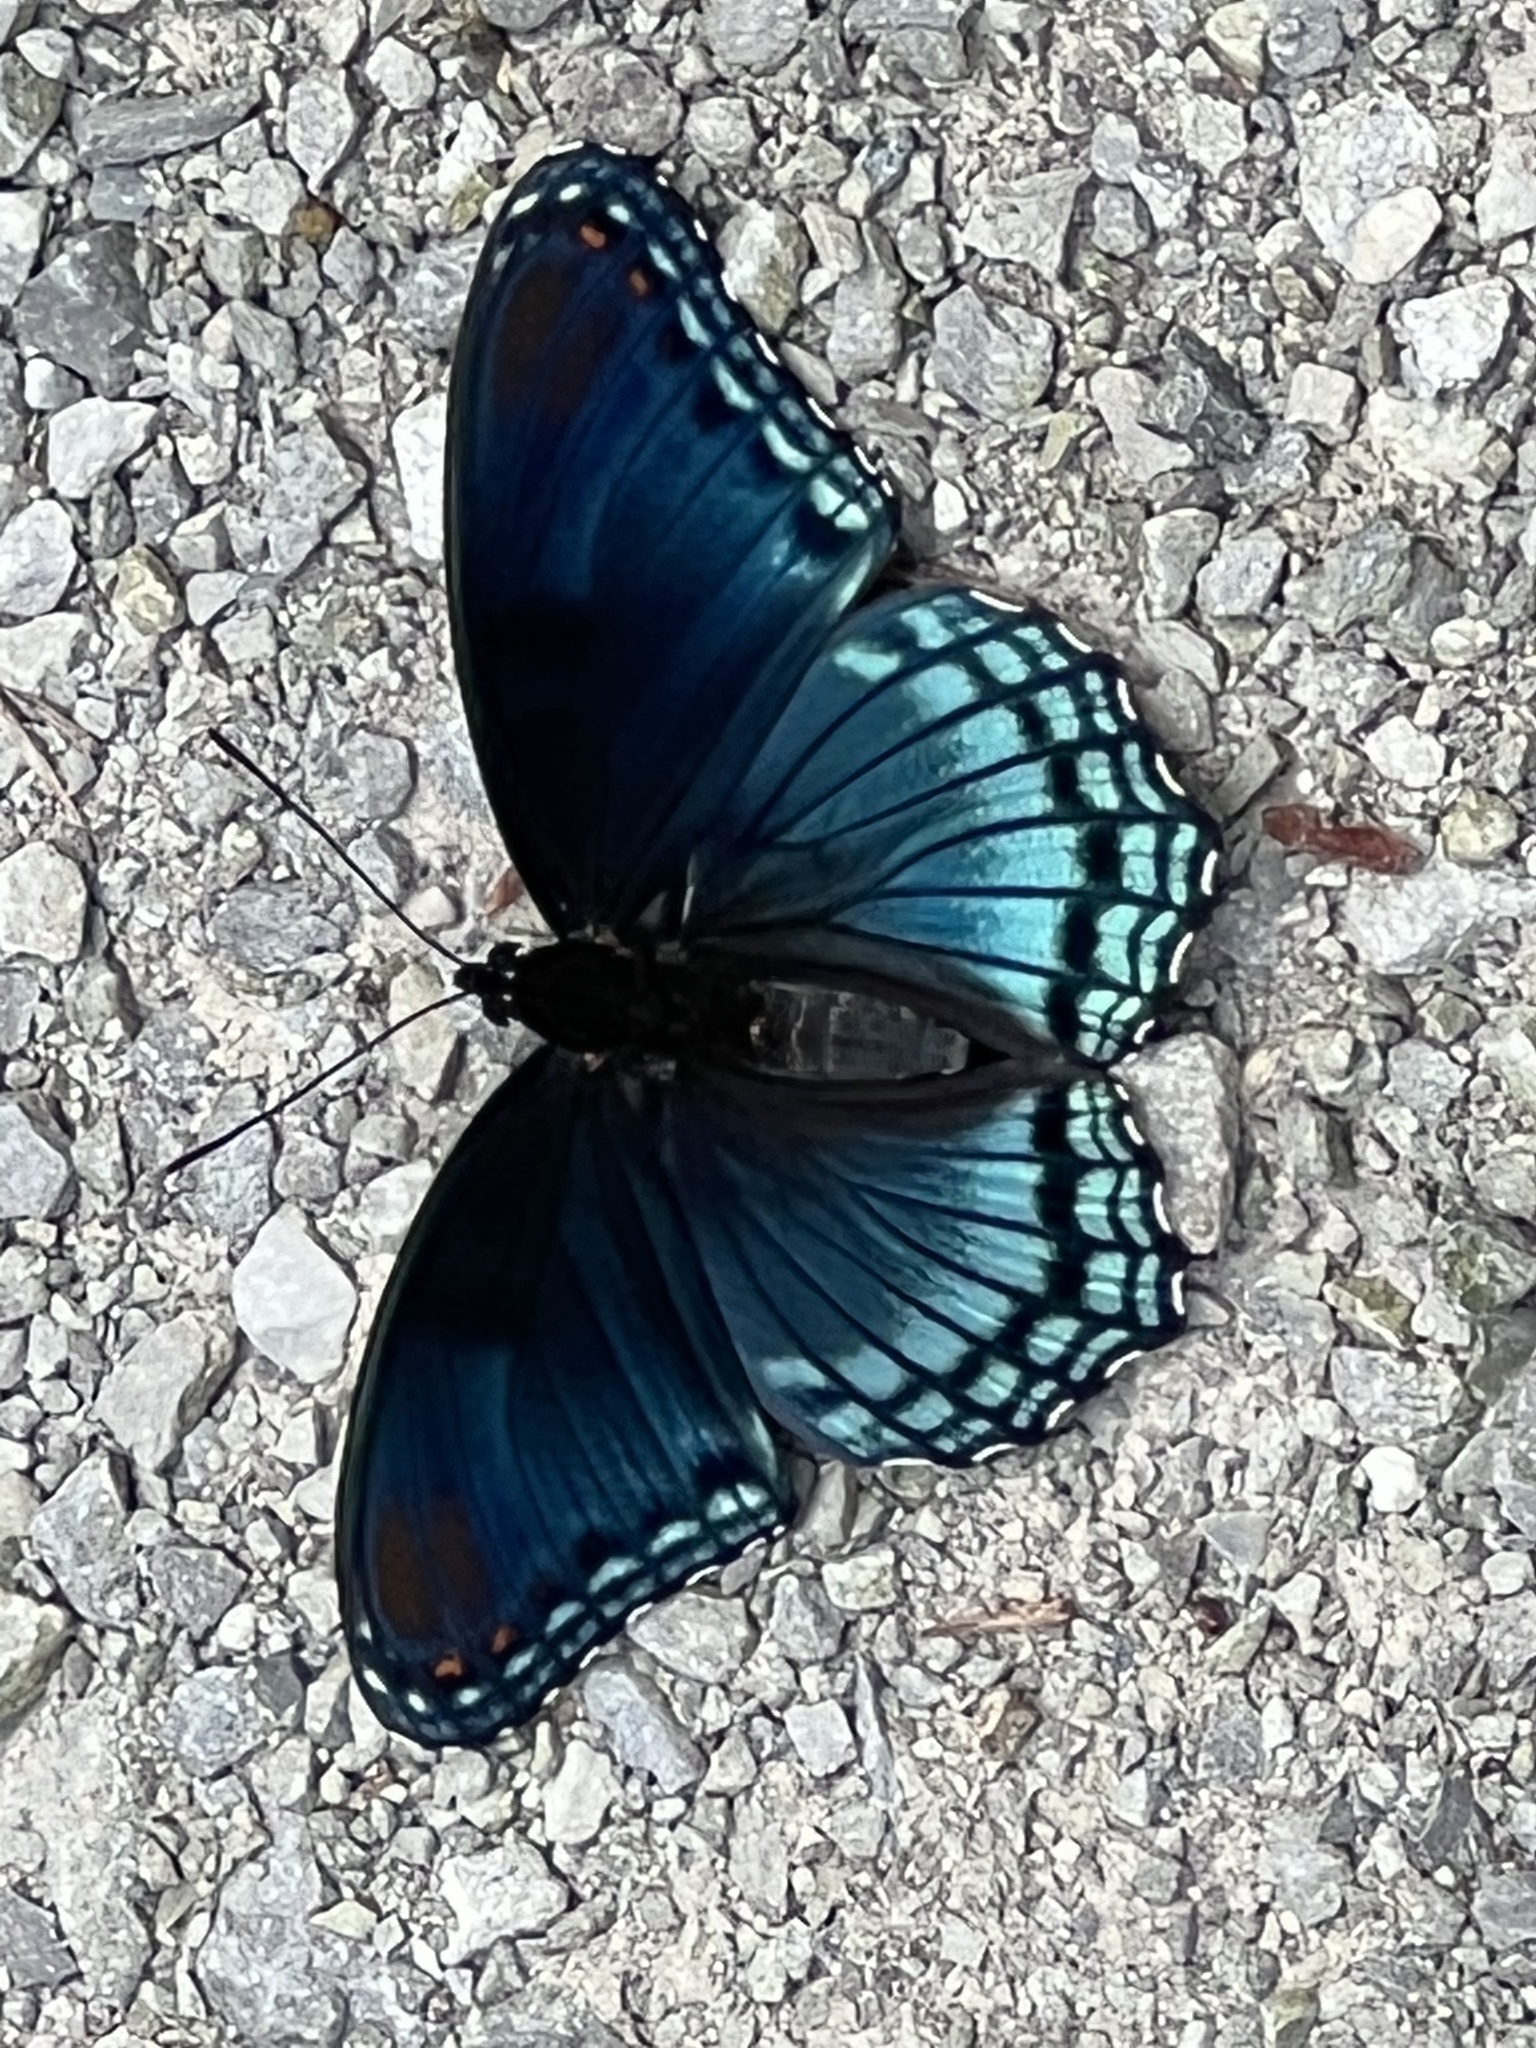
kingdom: Animalia
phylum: Arthropoda
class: Insecta
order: Lepidoptera
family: Nymphalidae
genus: Limenitis
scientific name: Limenitis arthemis
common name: Red-spotted admiral
